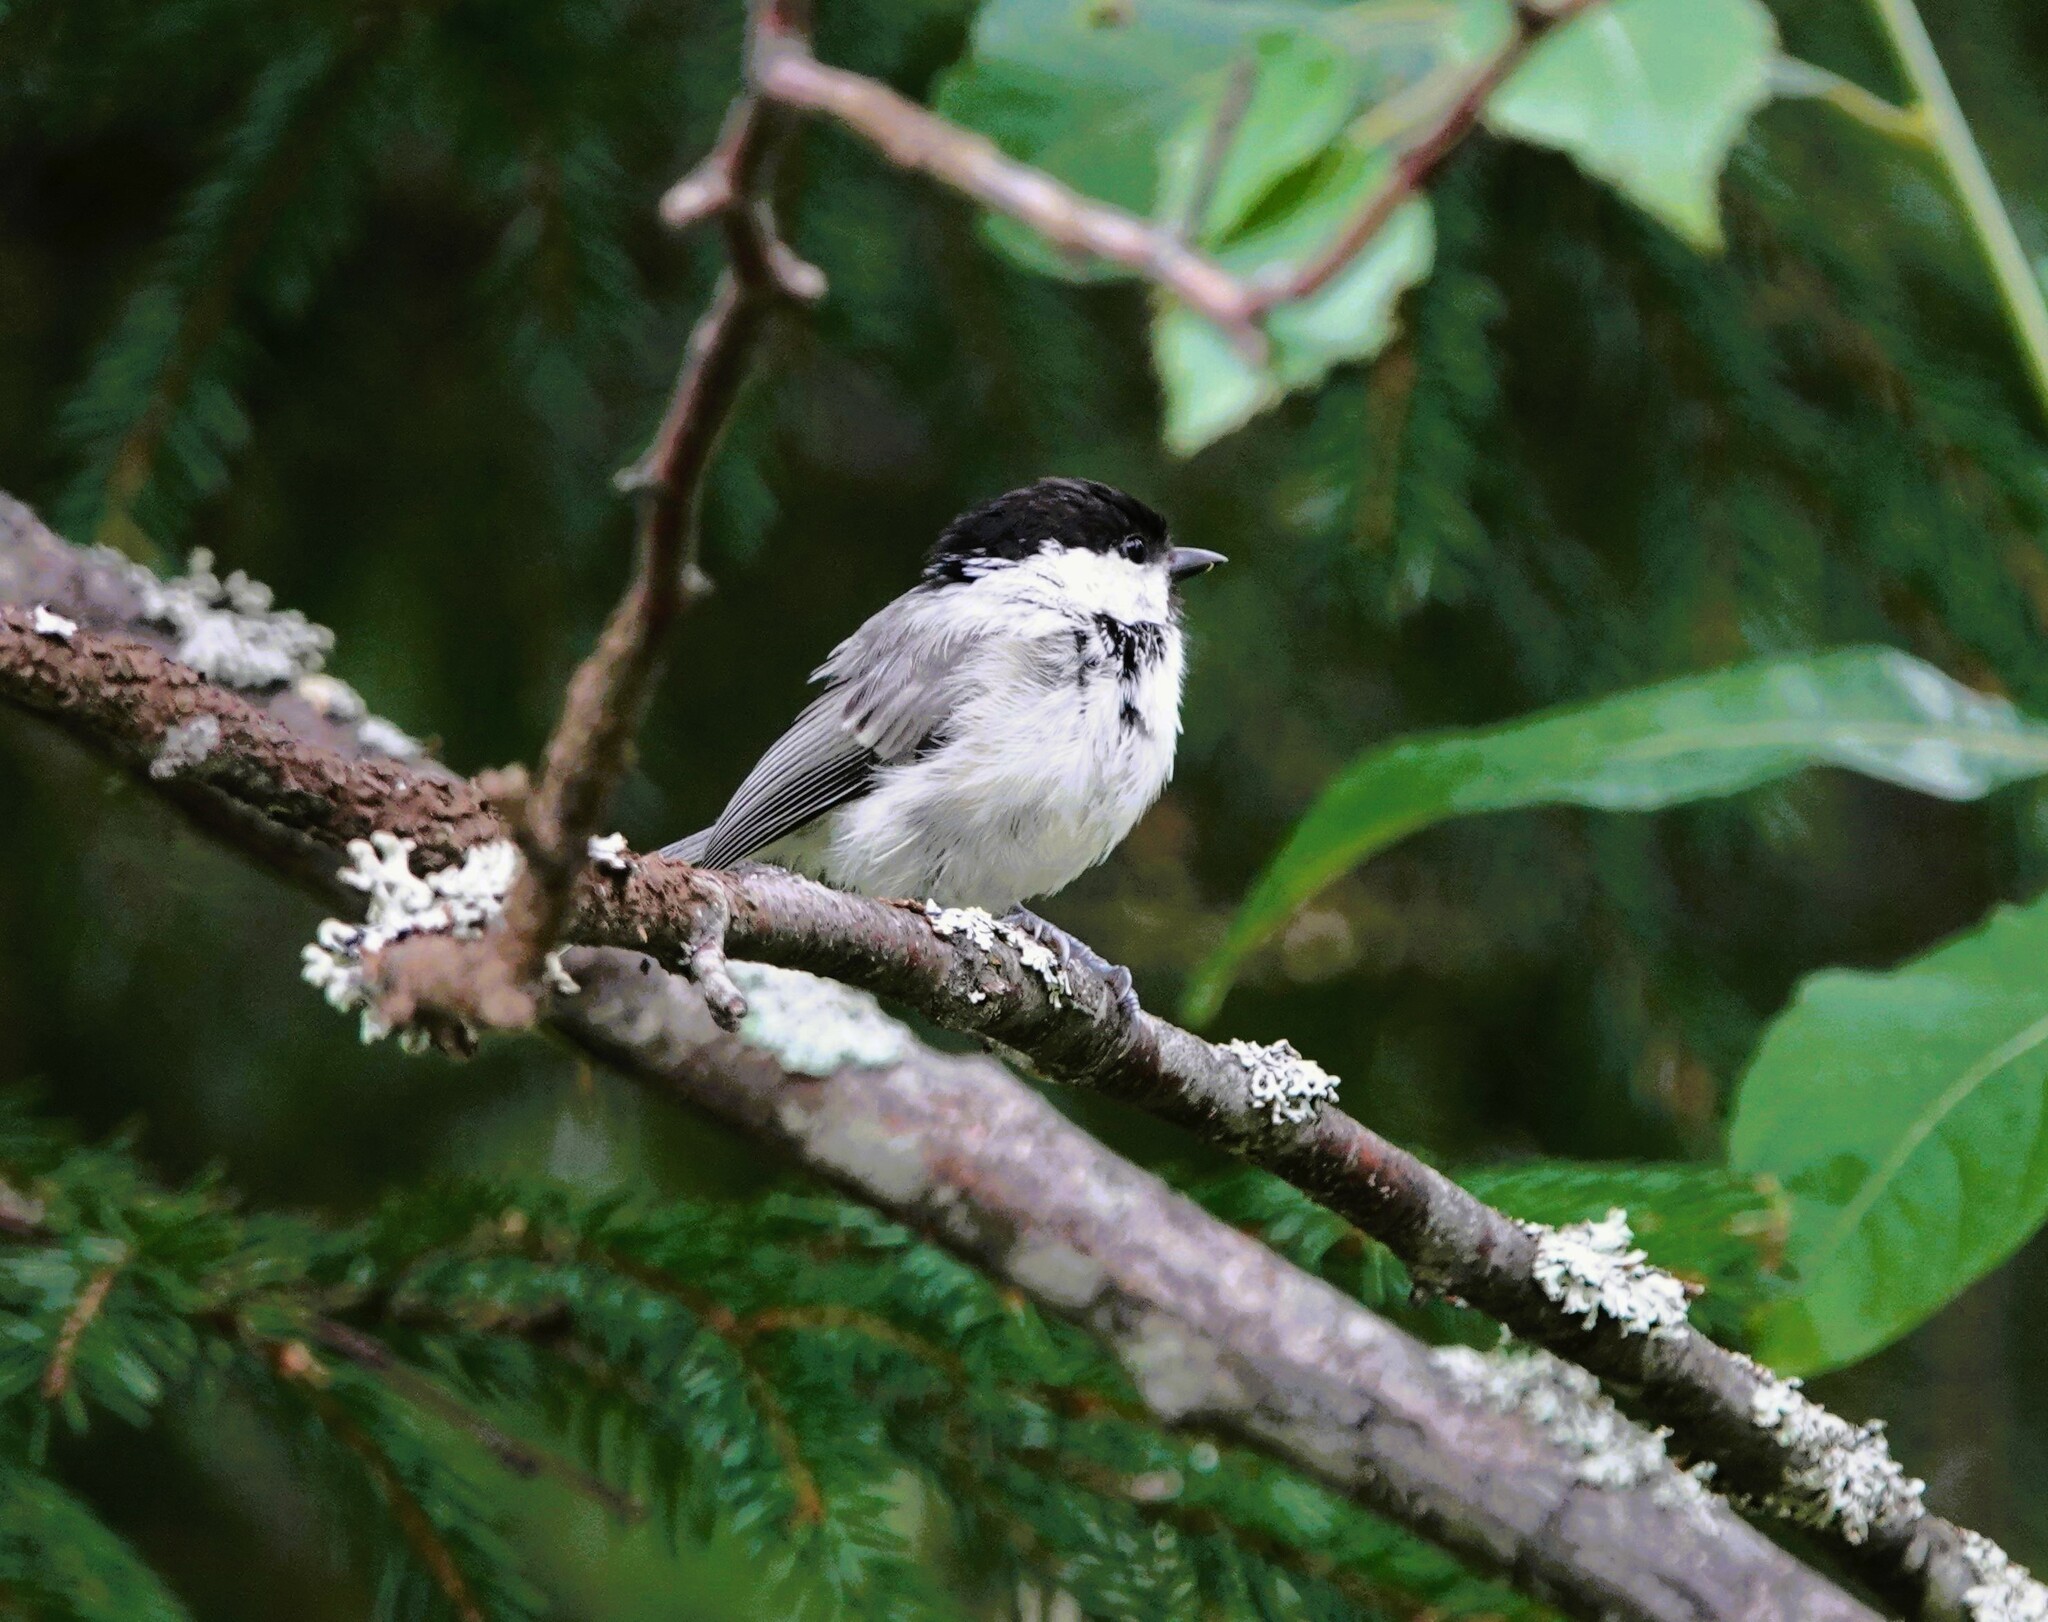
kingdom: Animalia
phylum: Chordata
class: Aves
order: Passeriformes
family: Paridae
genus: Poecile
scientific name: Poecile montanus
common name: Willow tit
